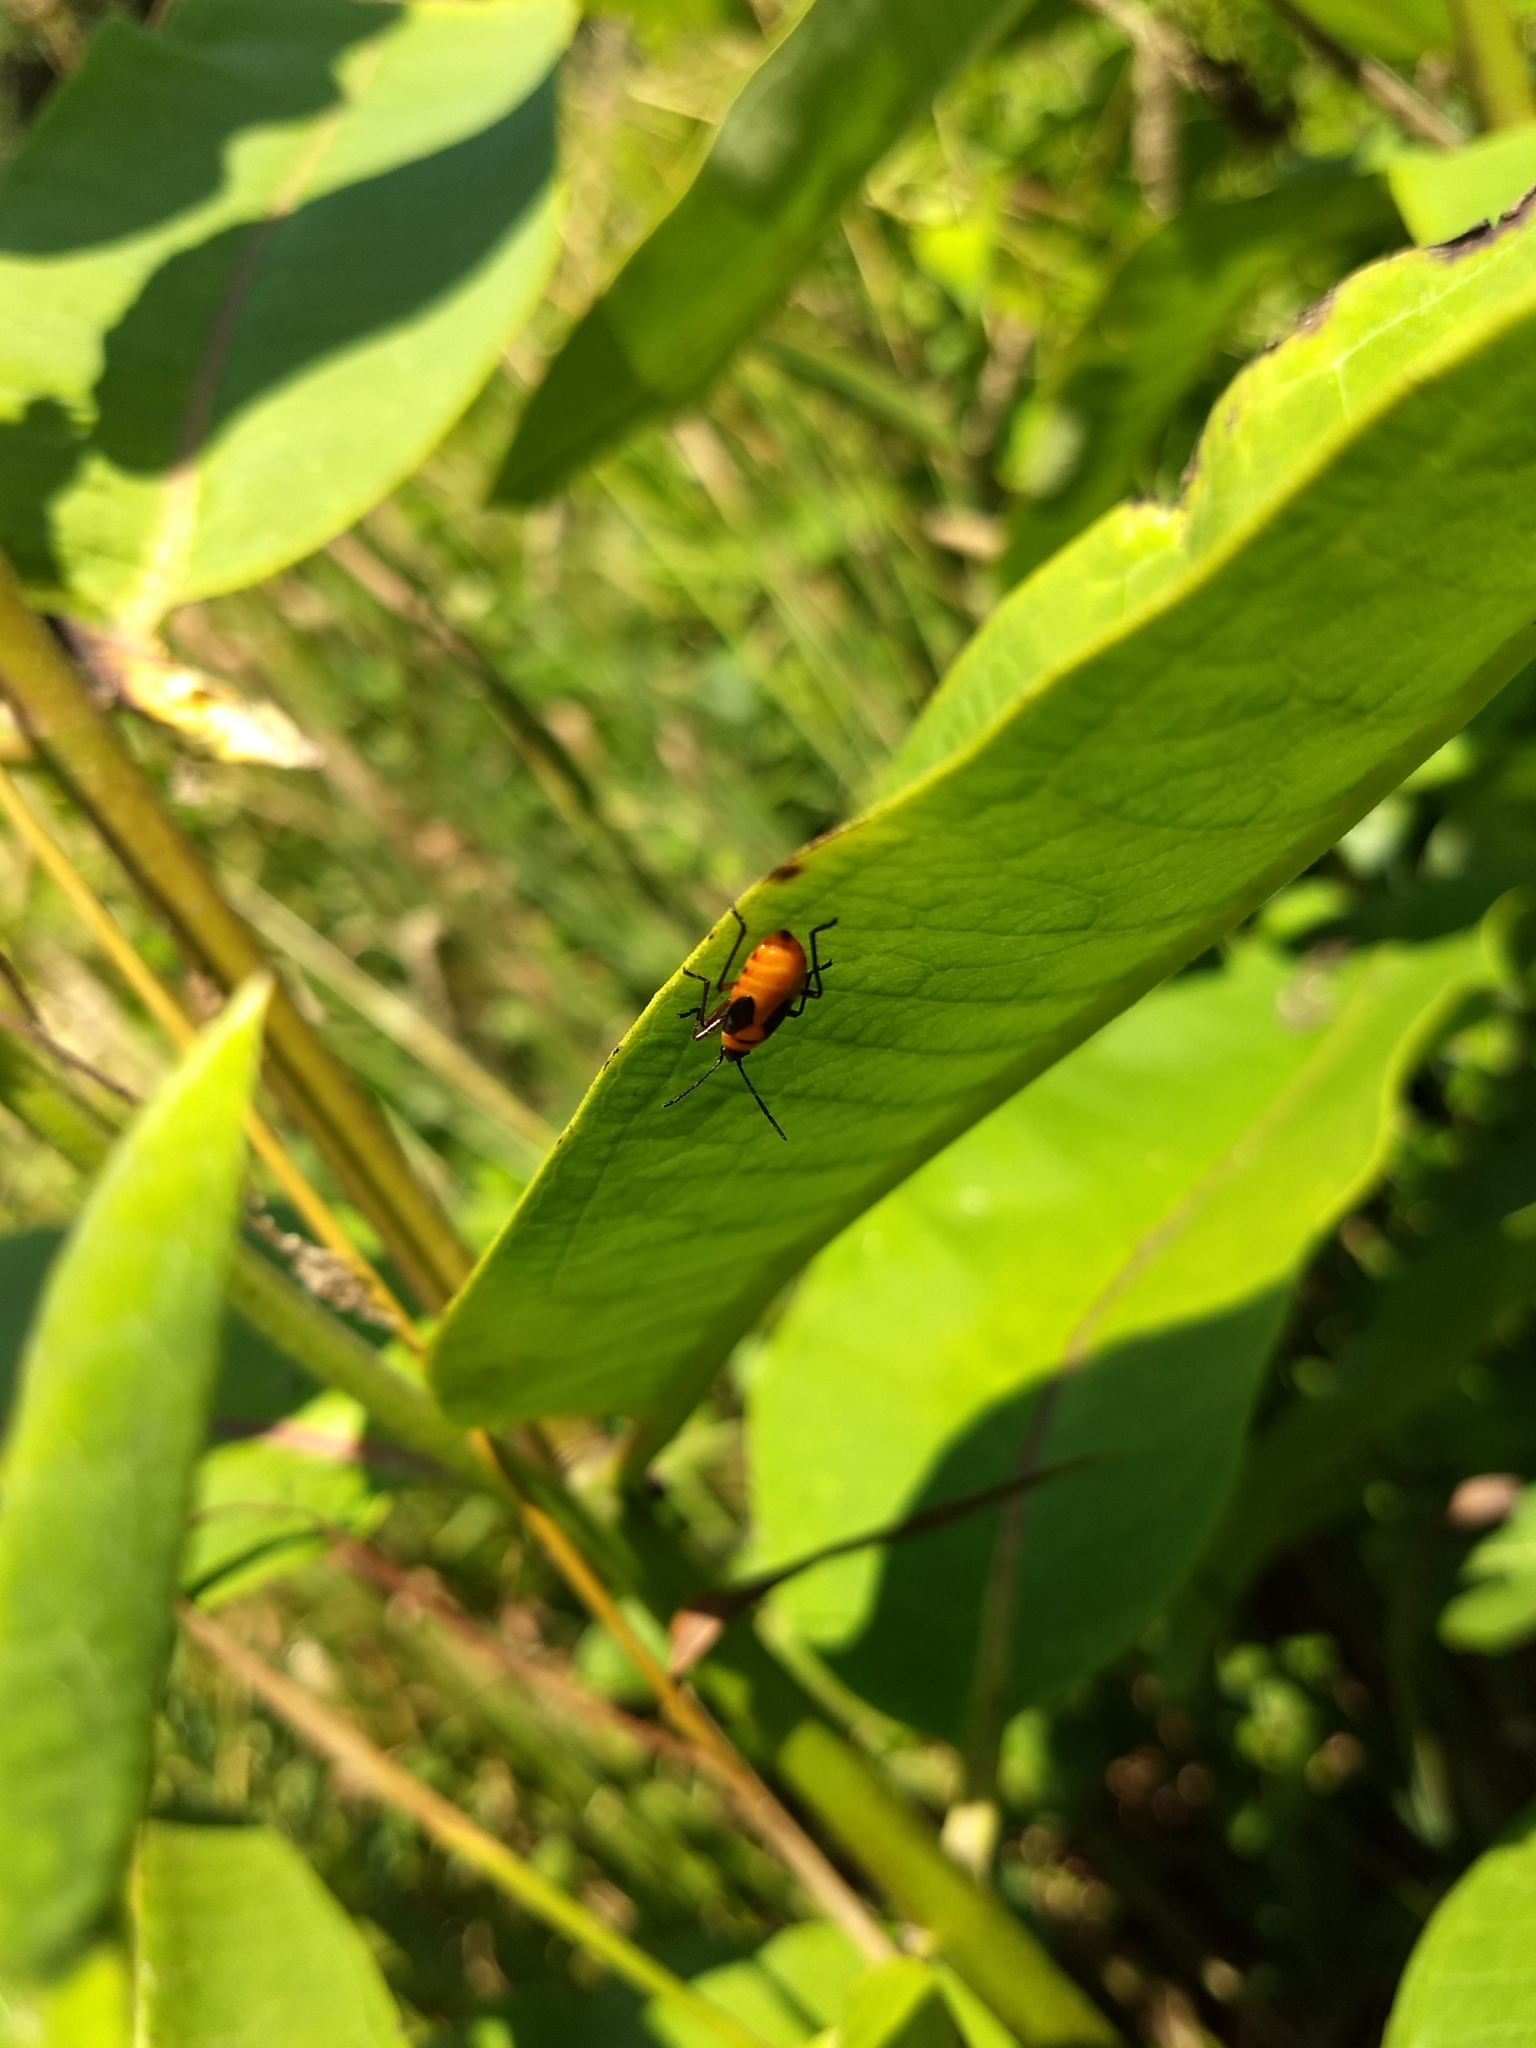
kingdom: Animalia
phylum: Arthropoda
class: Insecta
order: Hemiptera
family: Lygaeidae
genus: Oncopeltus
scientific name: Oncopeltus fasciatus
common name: Large milkweed bug
